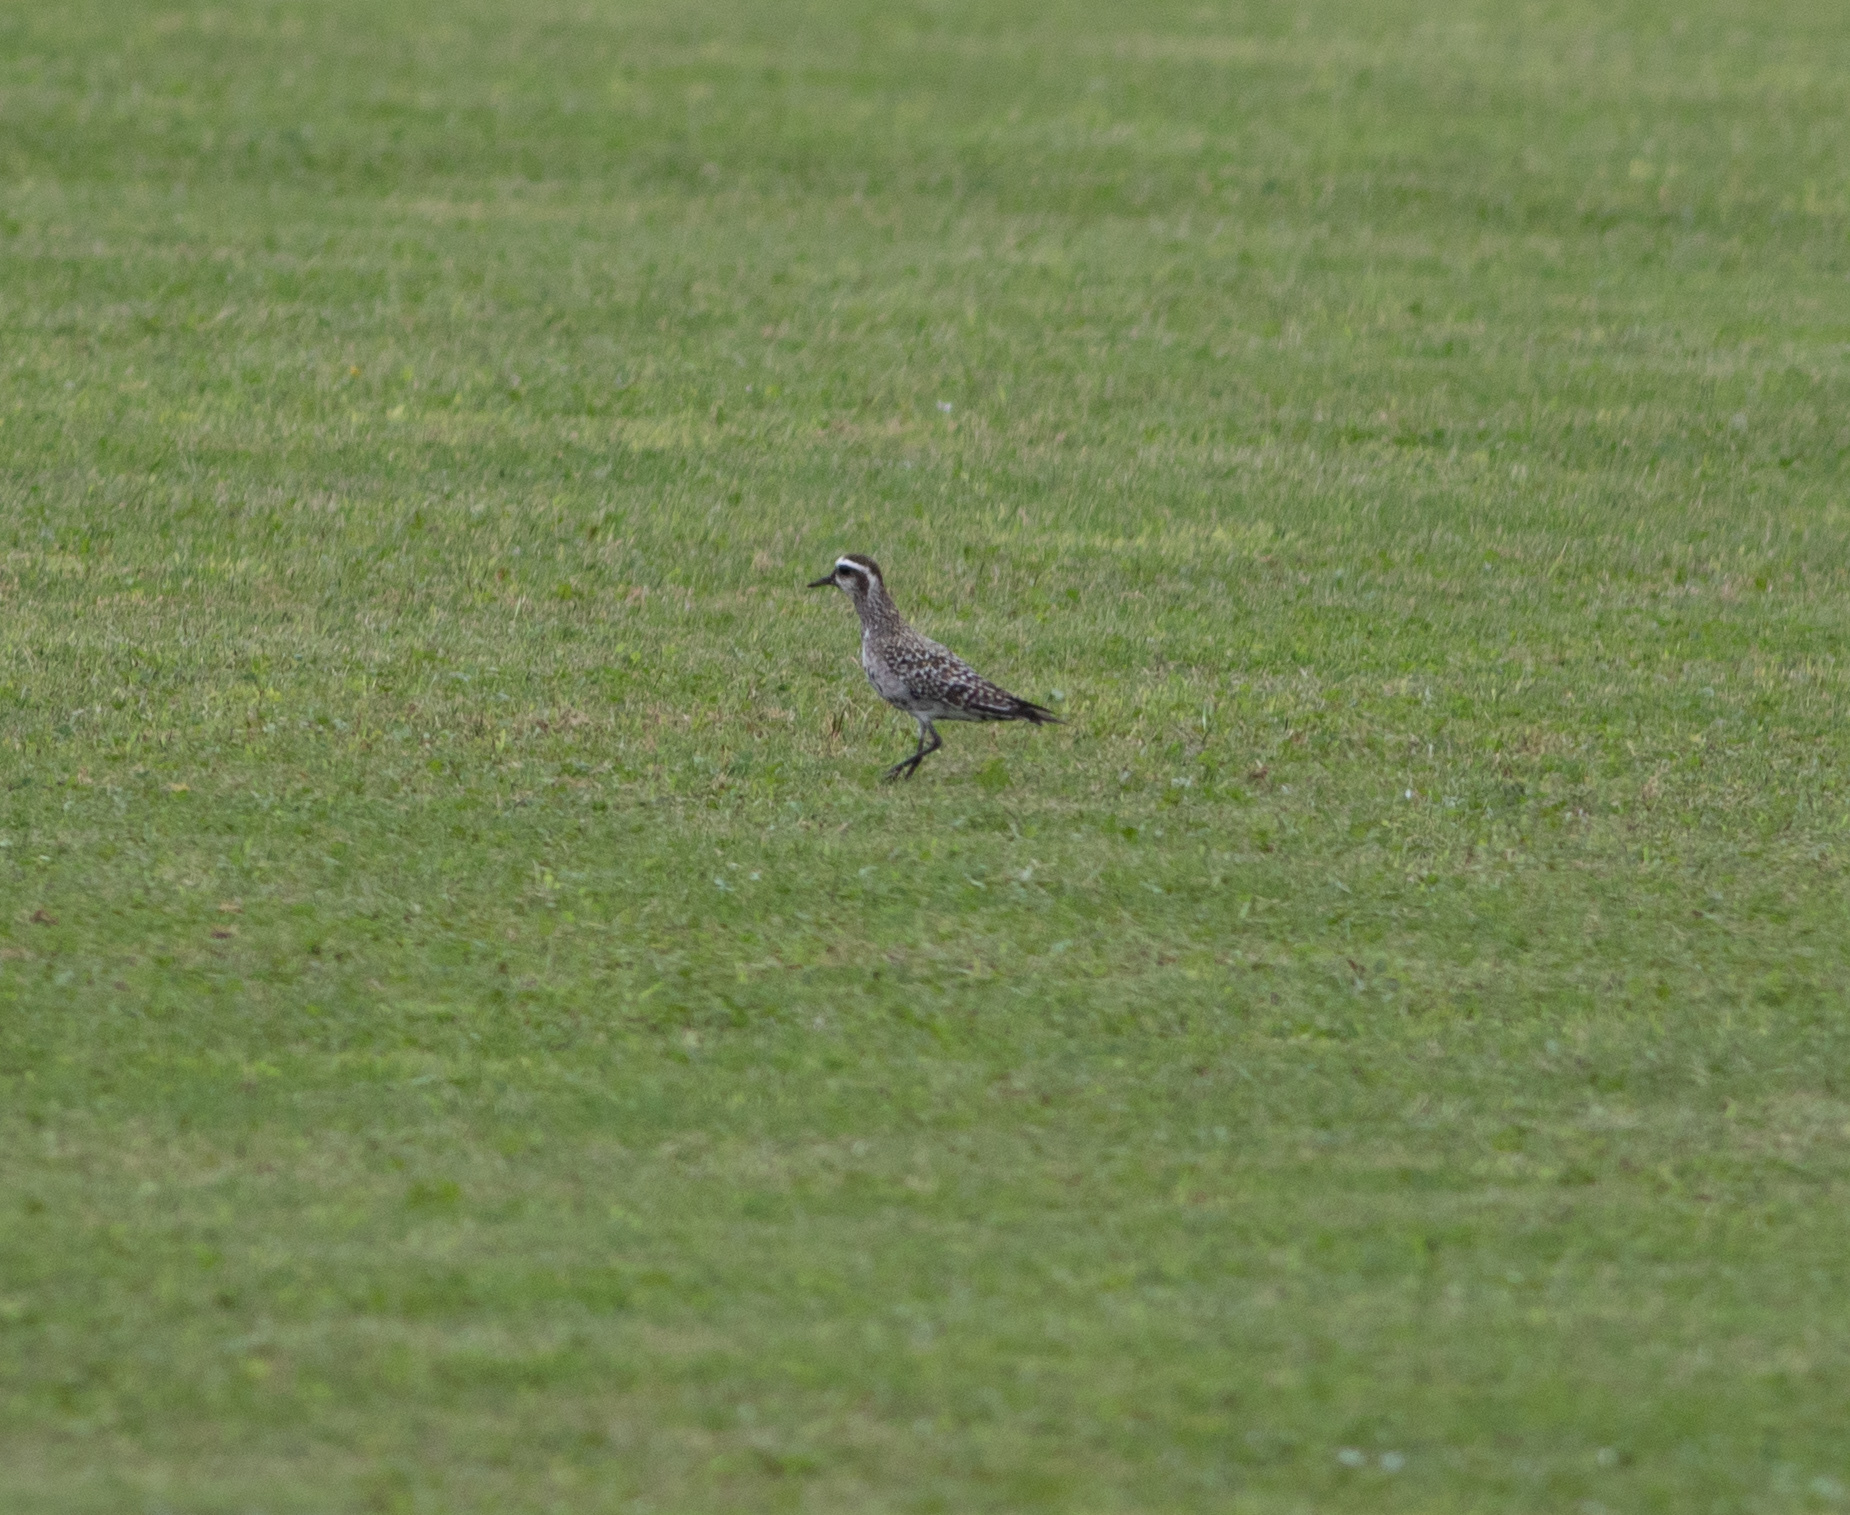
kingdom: Animalia
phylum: Chordata
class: Aves
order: Charadriiformes
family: Charadriidae
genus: Pluvialis
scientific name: Pluvialis dominica
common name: American golden plover
